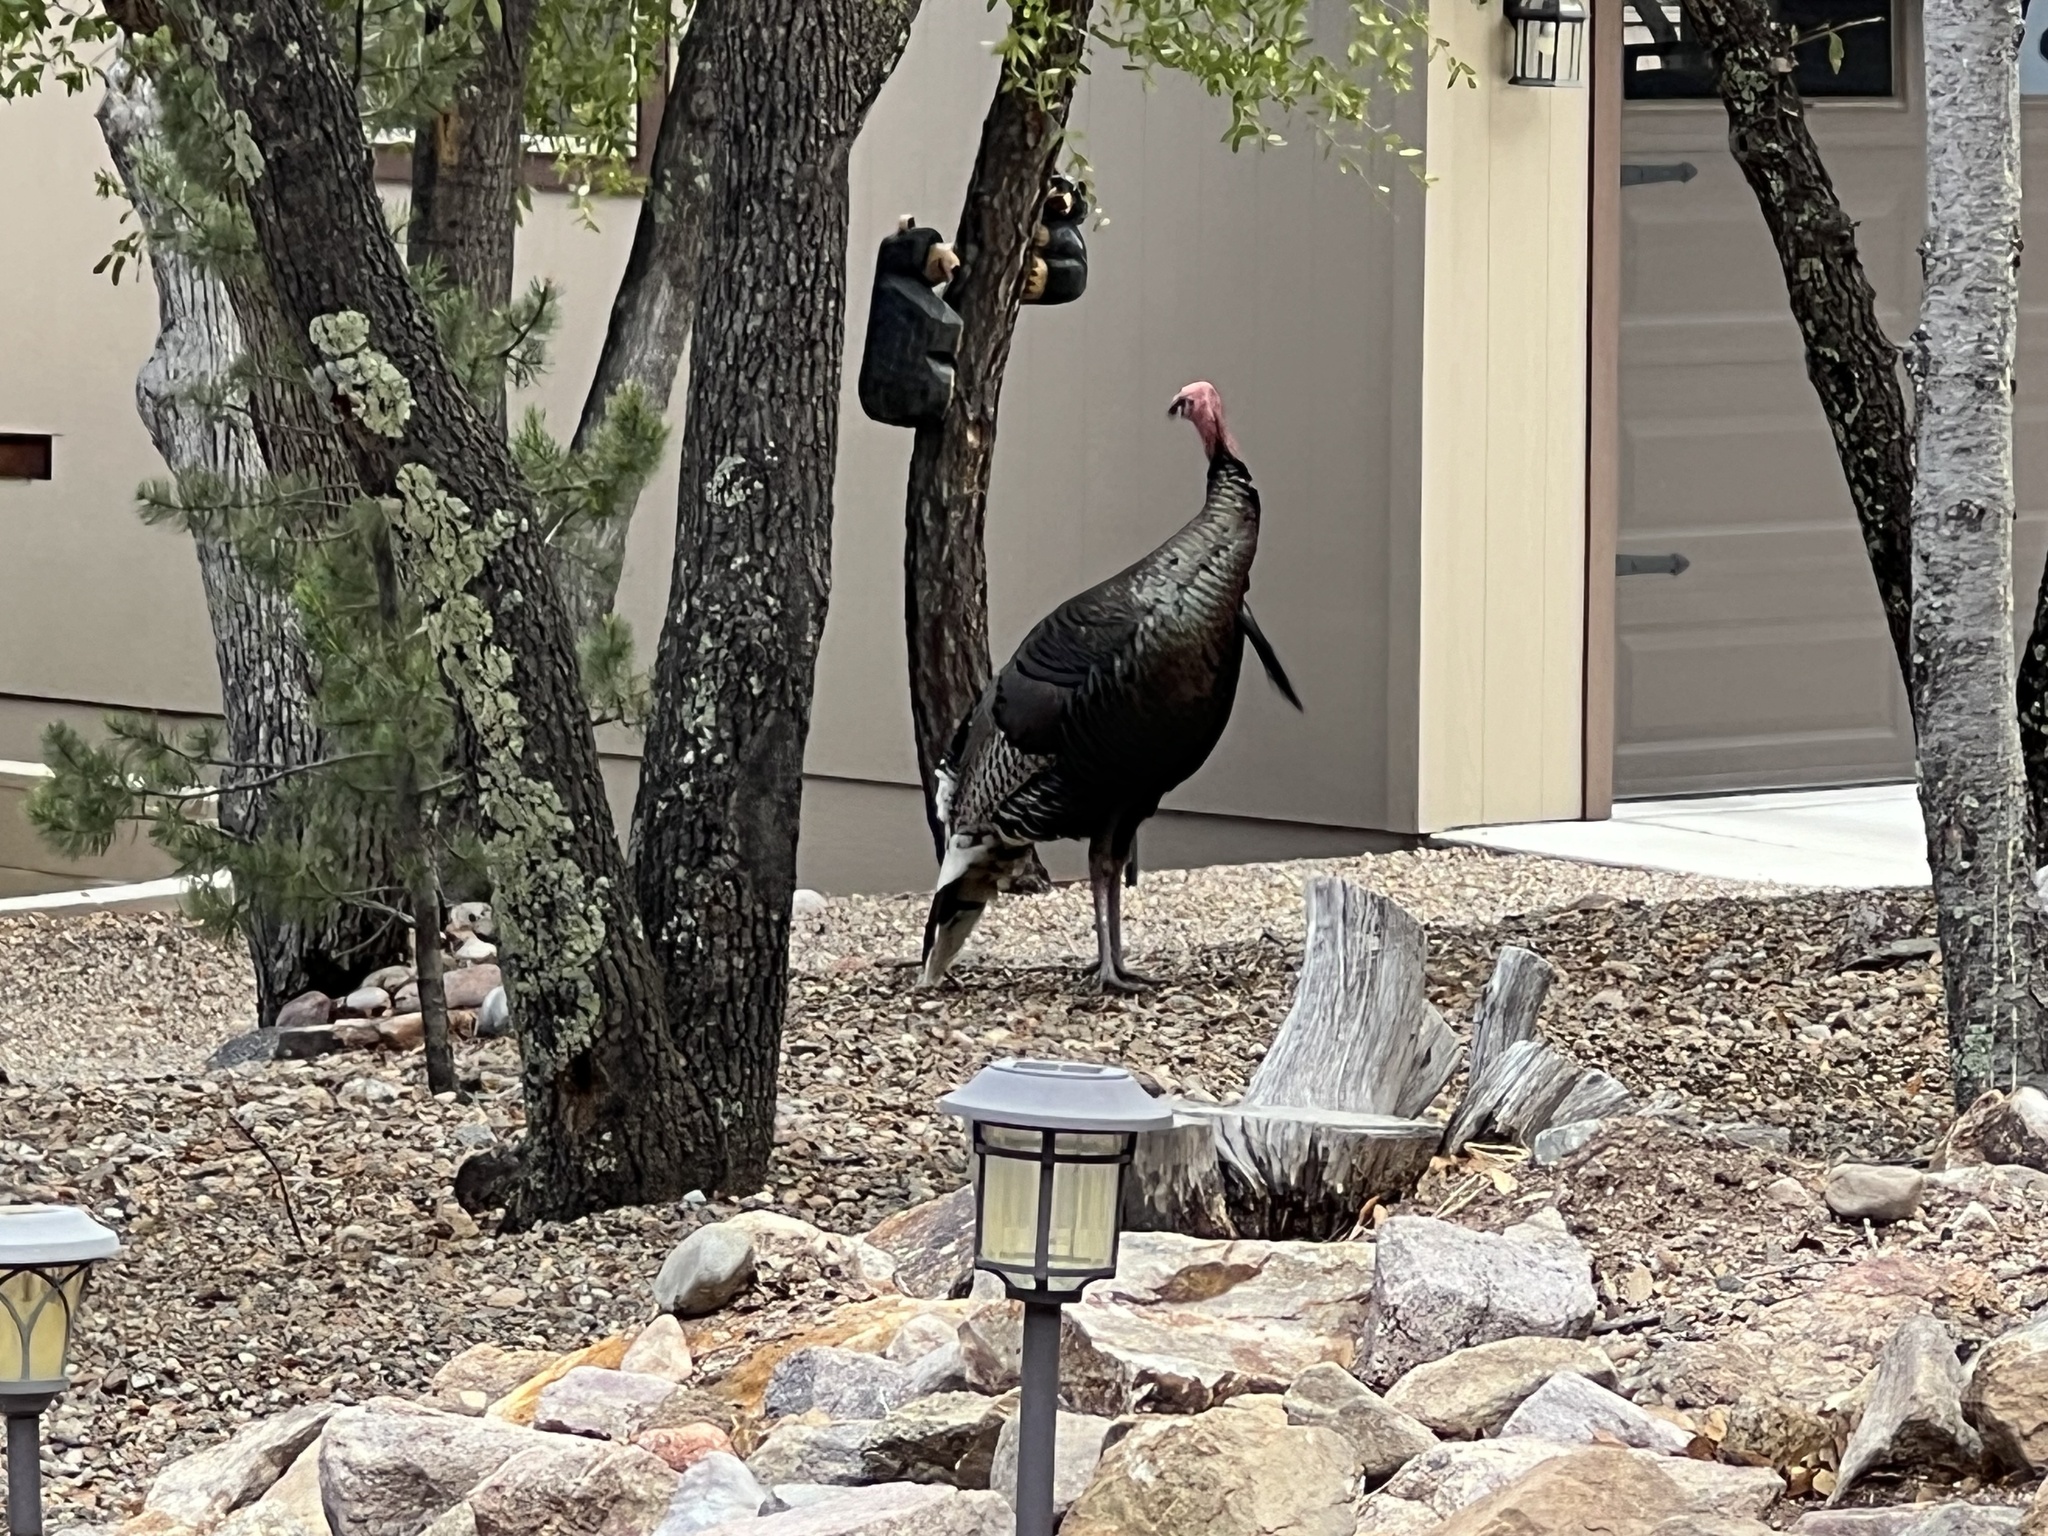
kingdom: Animalia
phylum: Chordata
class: Aves
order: Galliformes
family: Phasianidae
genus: Meleagris
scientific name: Meleagris gallopavo
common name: Wild turkey
